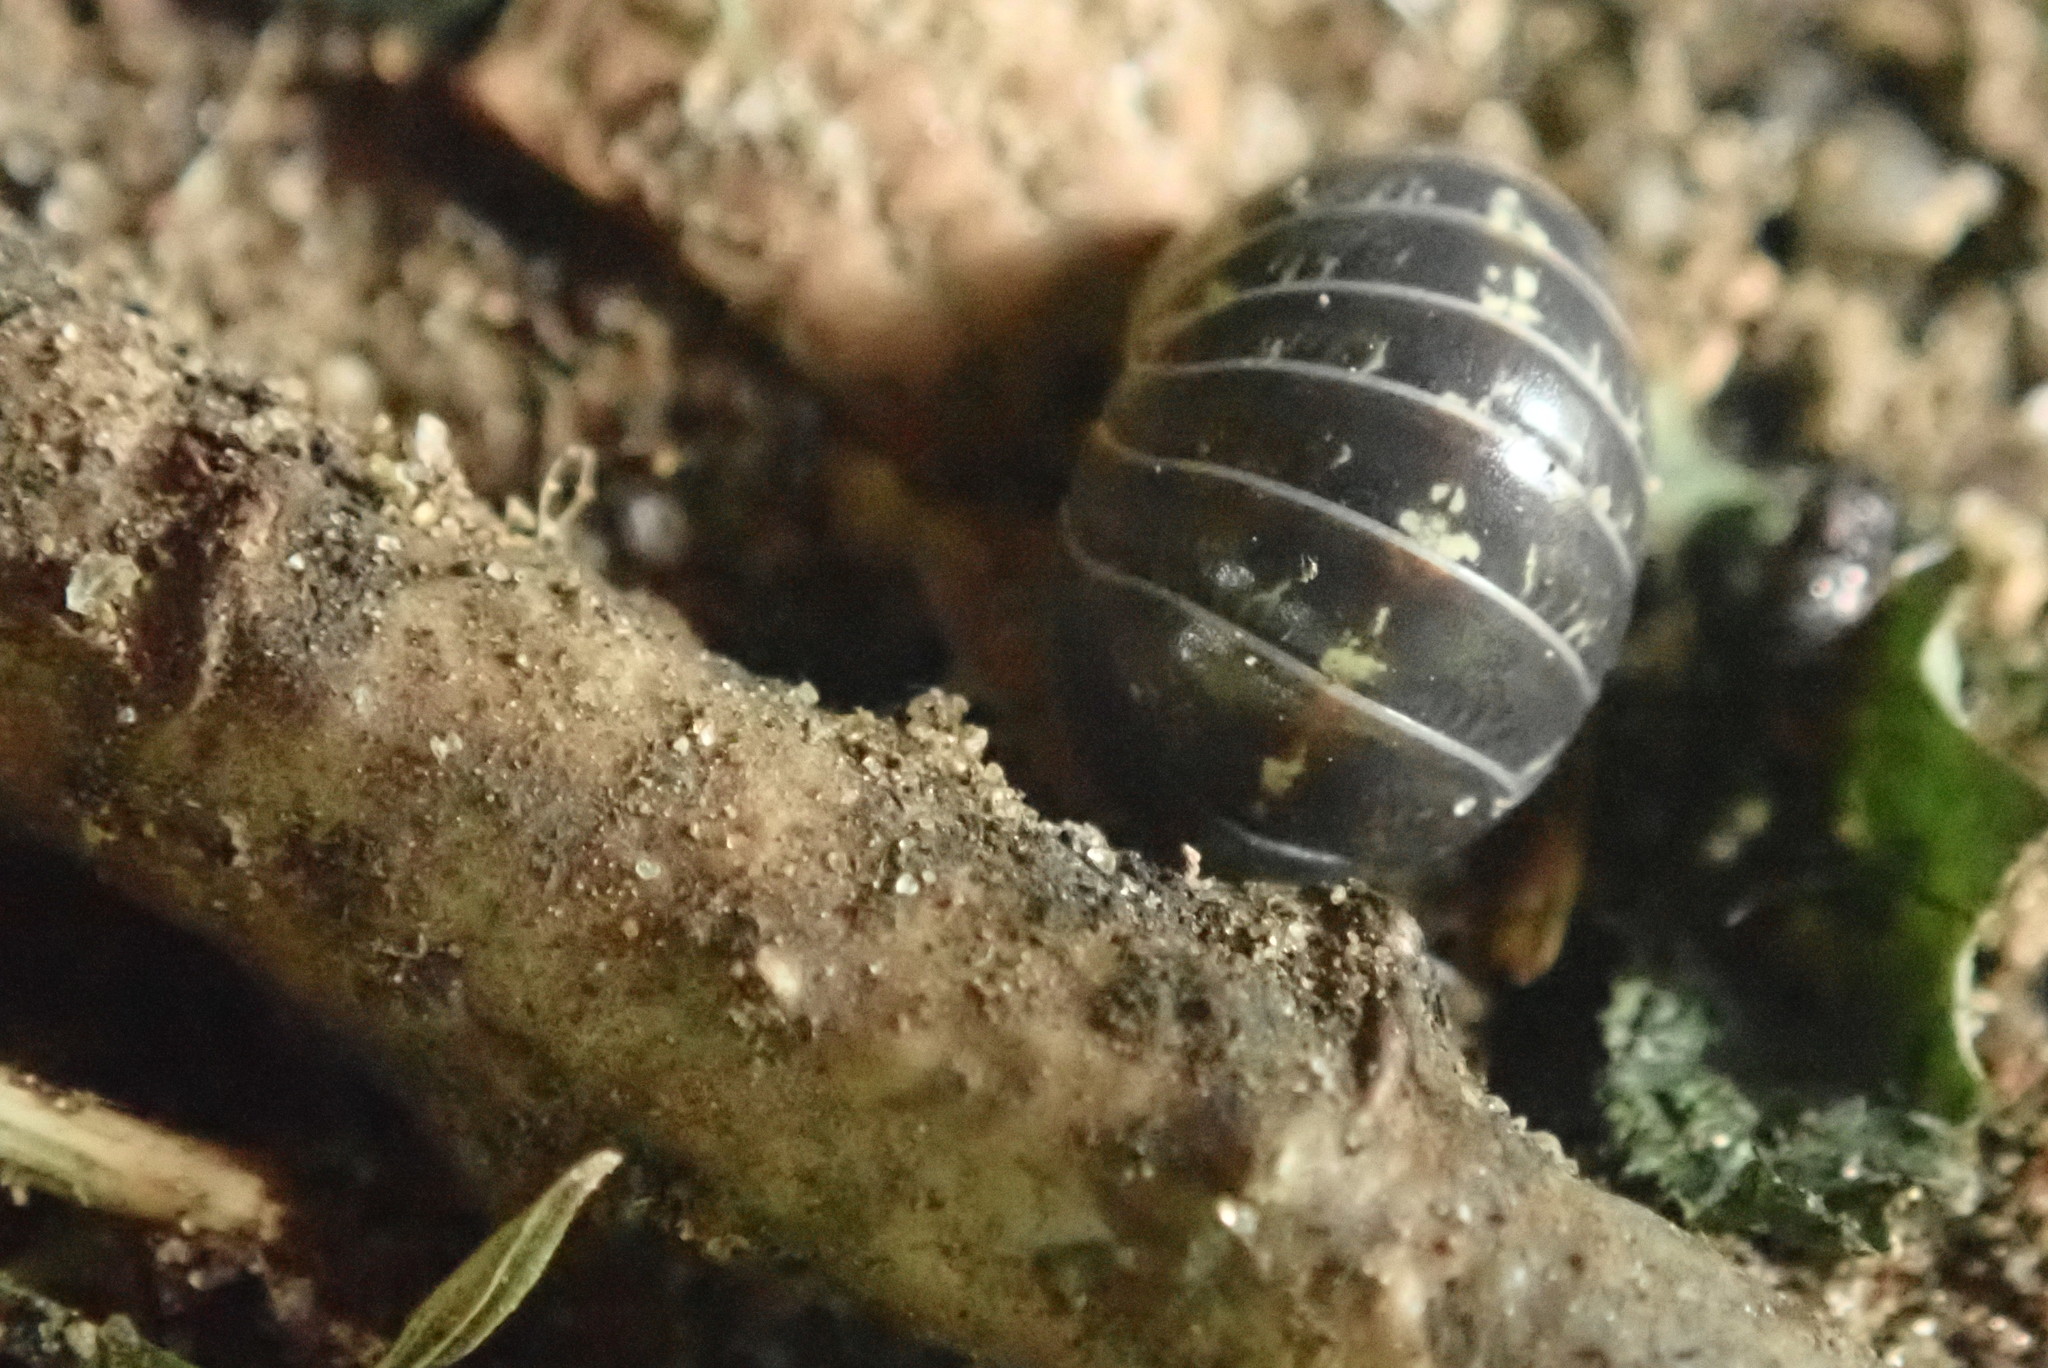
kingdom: Animalia
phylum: Arthropoda
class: Malacostraca
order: Isopoda
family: Armadillidiidae
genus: Armadillidium
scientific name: Armadillidium vulgare
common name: Common pill woodlouse
